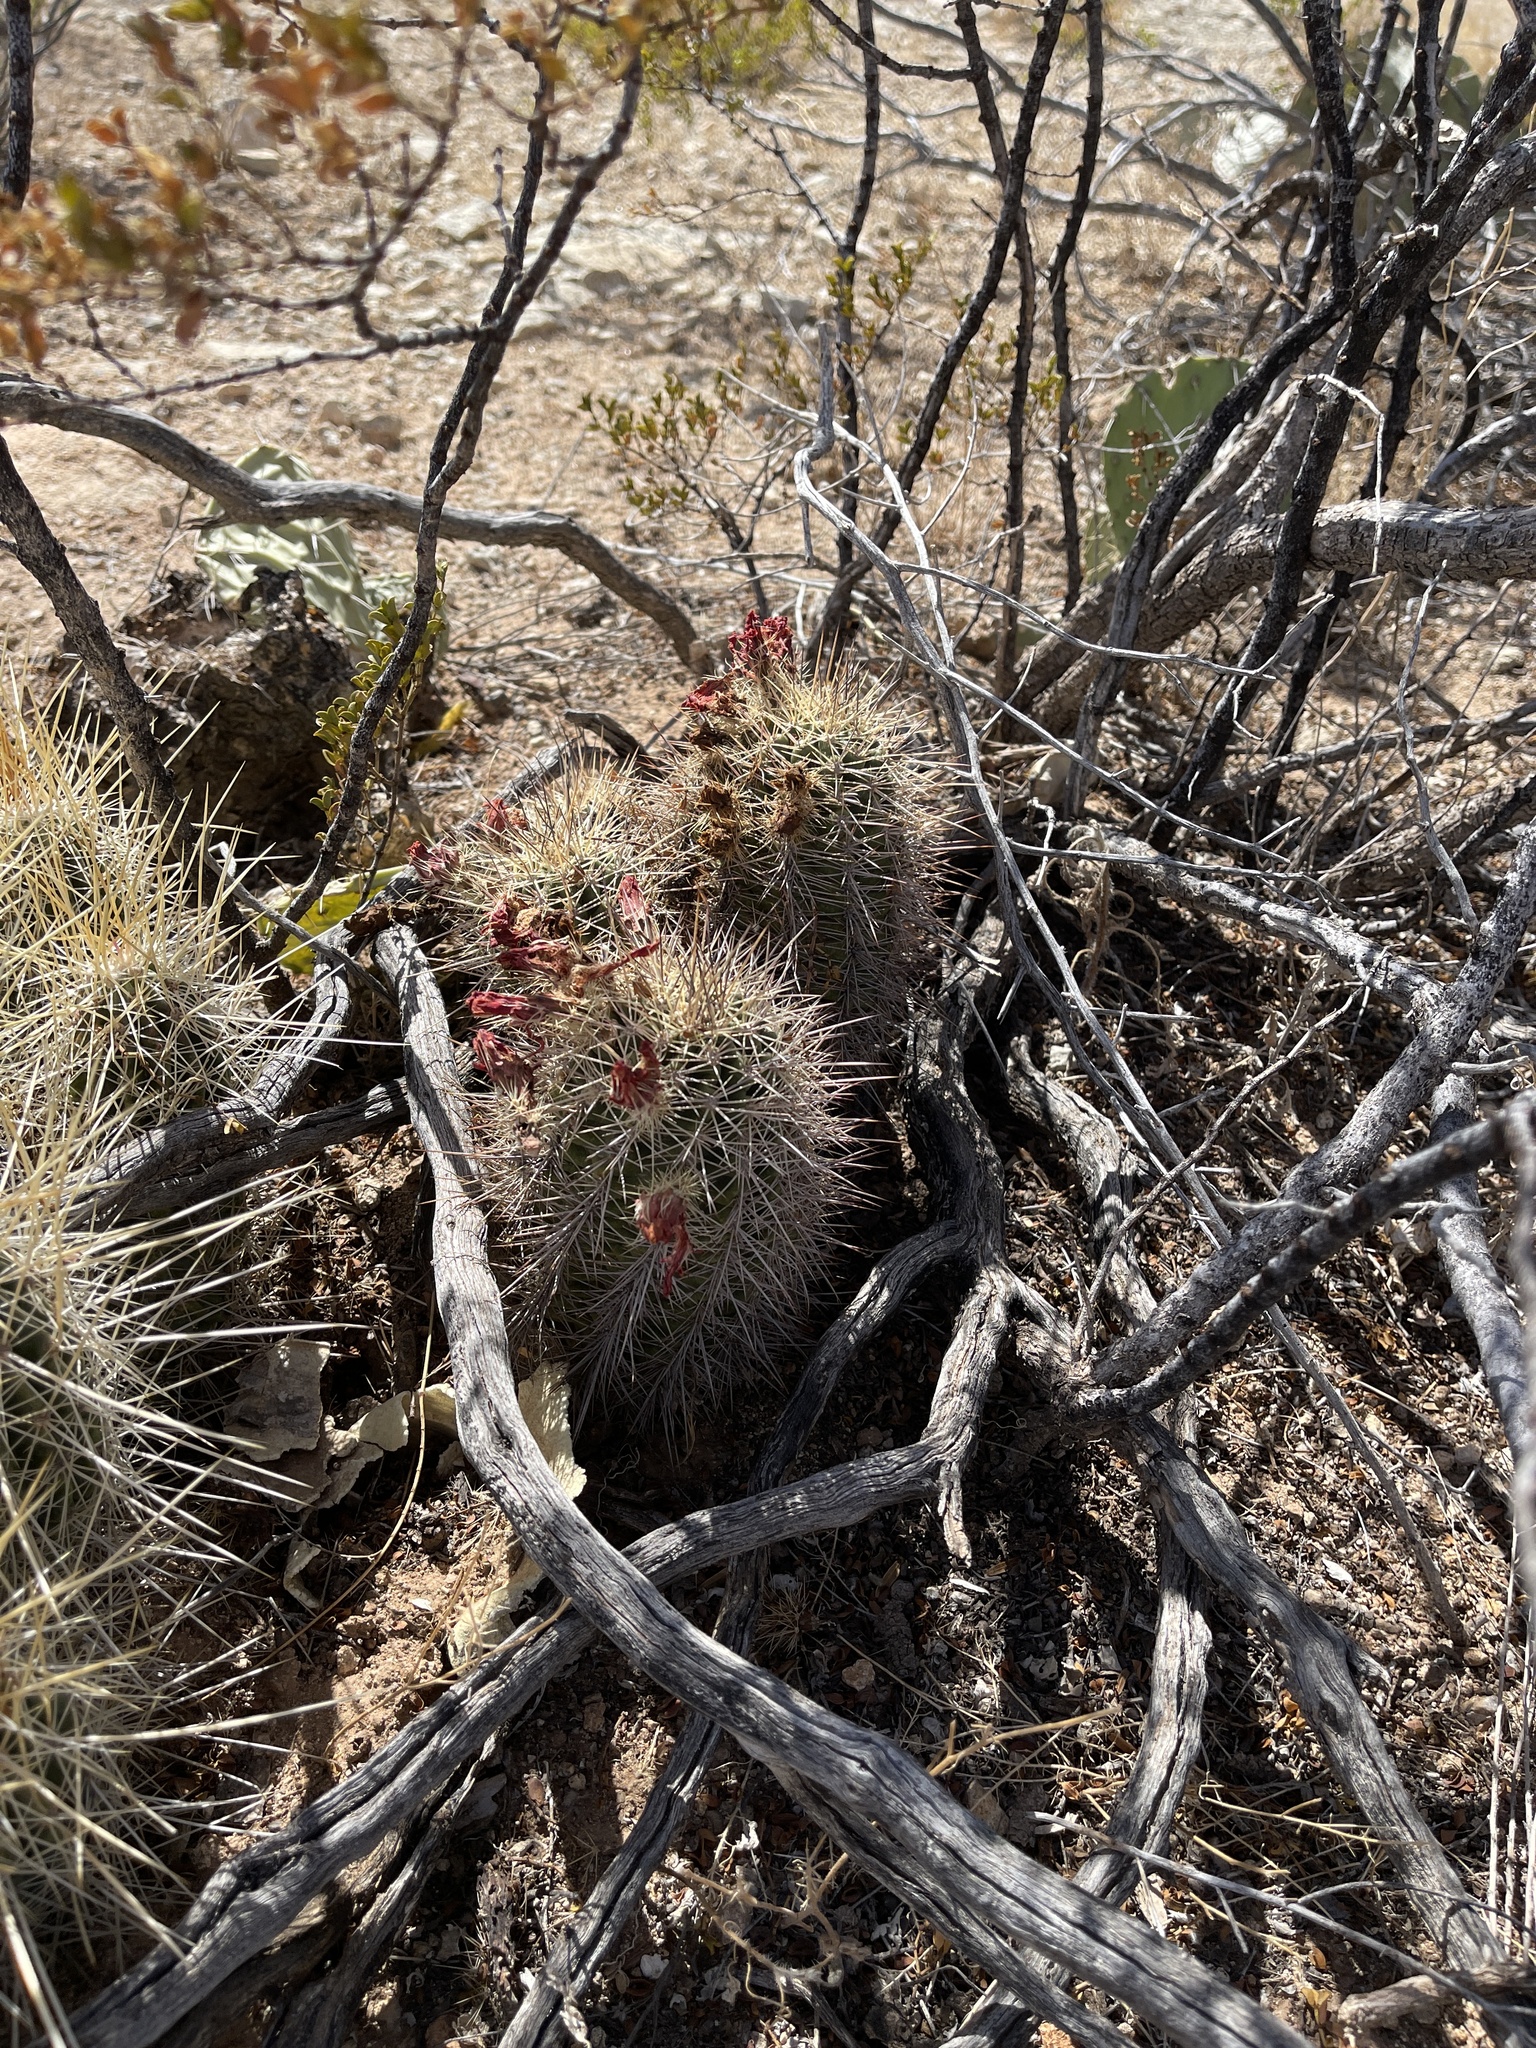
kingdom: Plantae
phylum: Tracheophyta
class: Magnoliopsida
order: Caryophyllales
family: Cactaceae
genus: Echinocereus
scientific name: Echinocereus coccineus
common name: Scarlet hedgehog cactus
